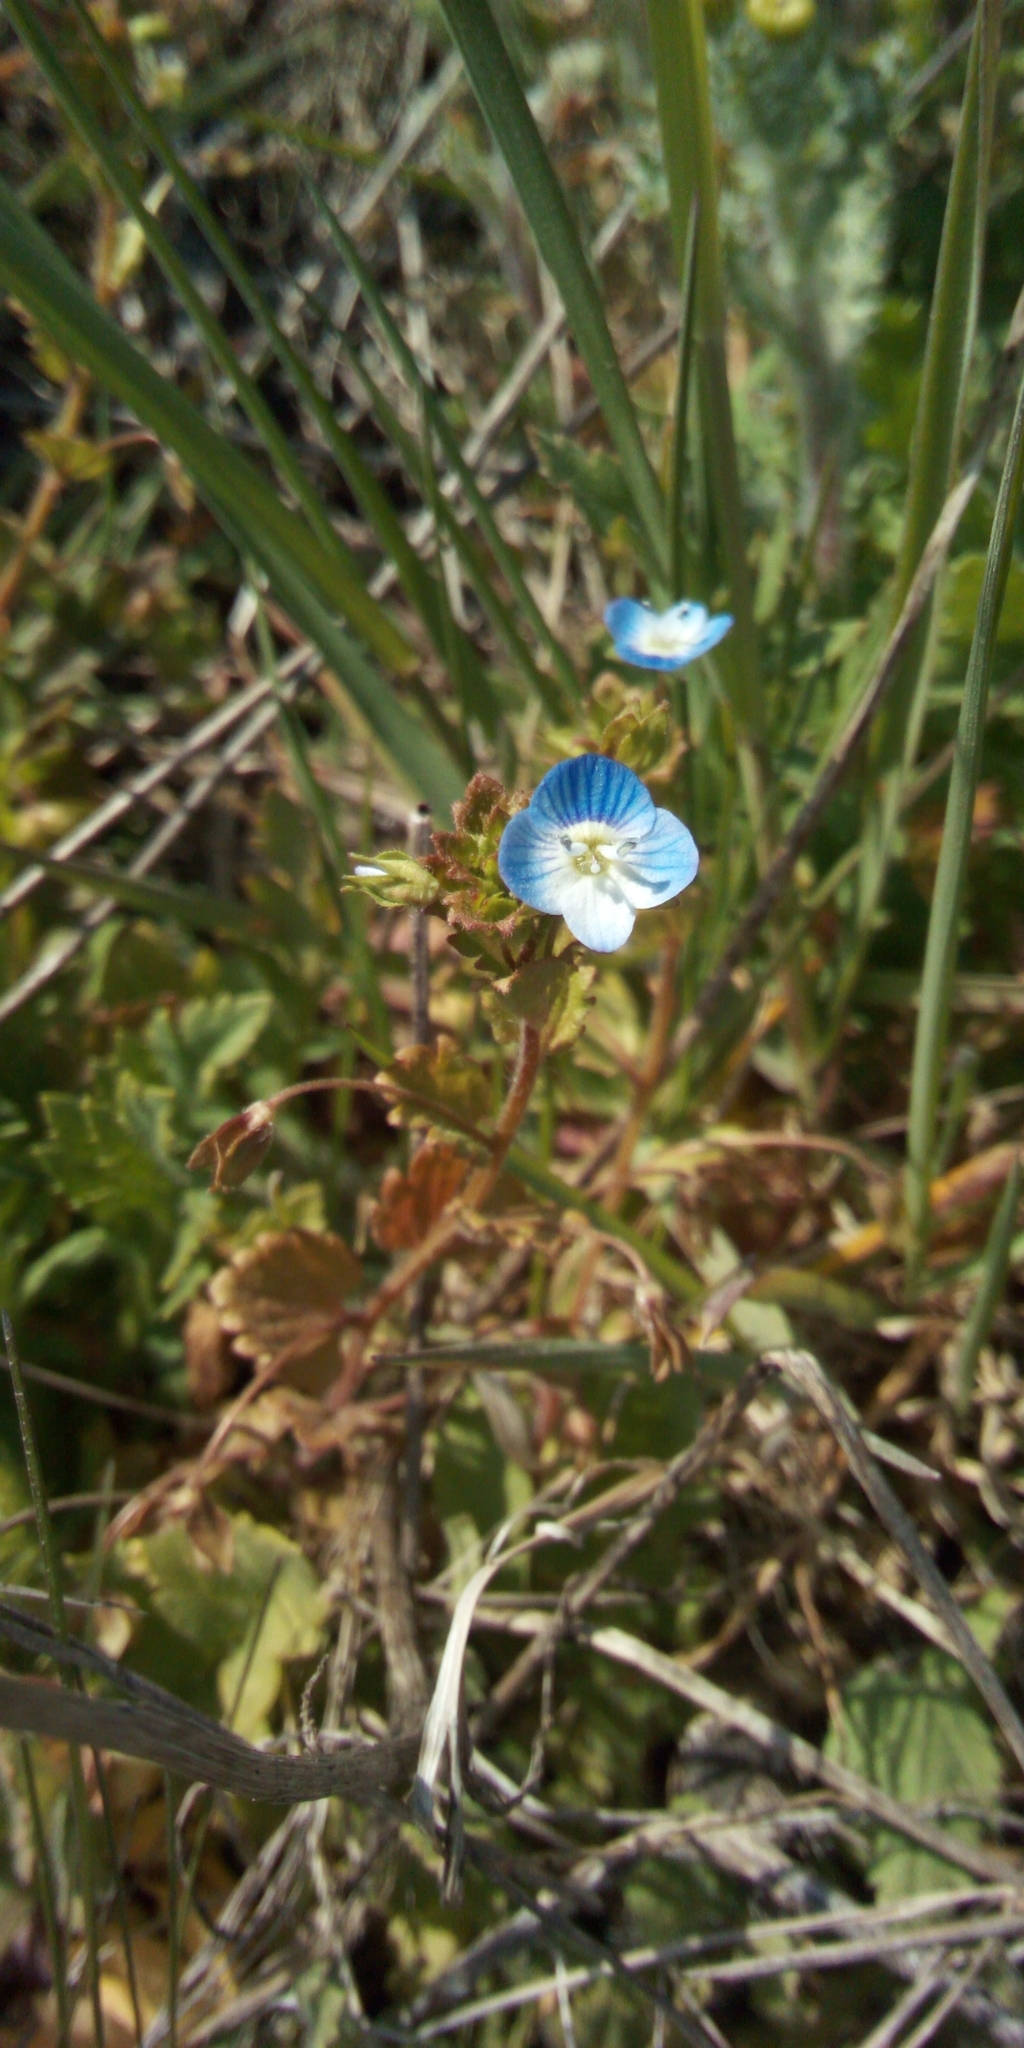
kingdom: Plantae
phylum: Tracheophyta
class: Magnoliopsida
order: Lamiales
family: Plantaginaceae
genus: Veronica
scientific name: Veronica persica
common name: Common field-speedwell
